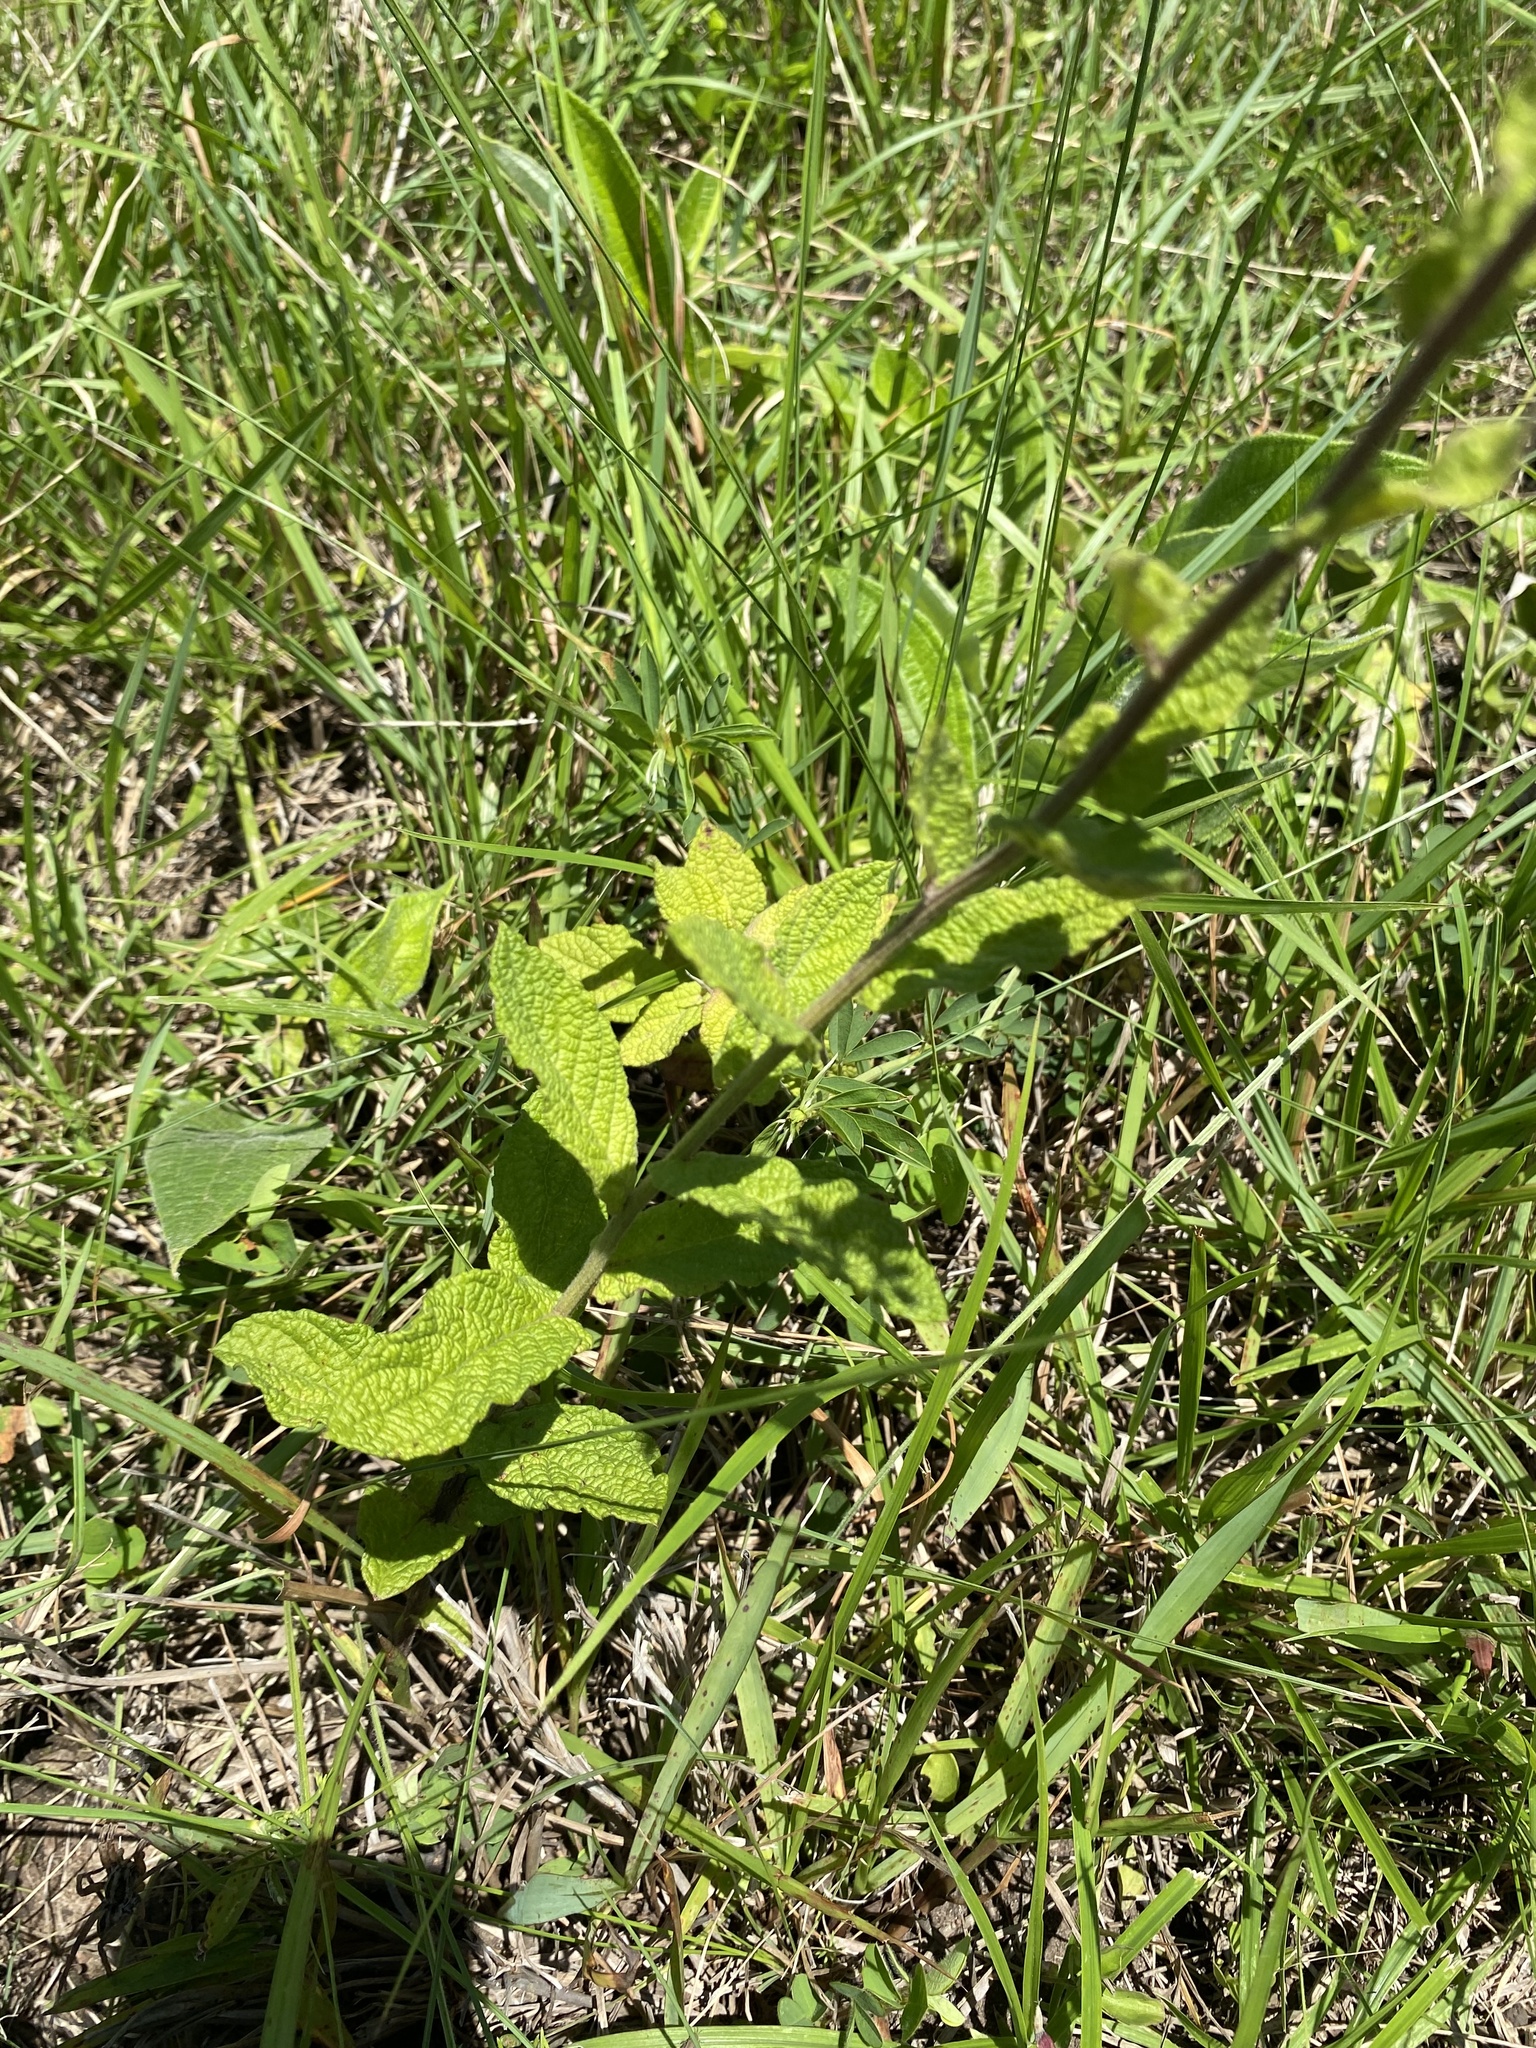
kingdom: Plantae
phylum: Tracheophyta
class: Magnoliopsida
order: Asterales
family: Asteraceae
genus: Hilliardiella
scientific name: Hilliardiella hirsuta
